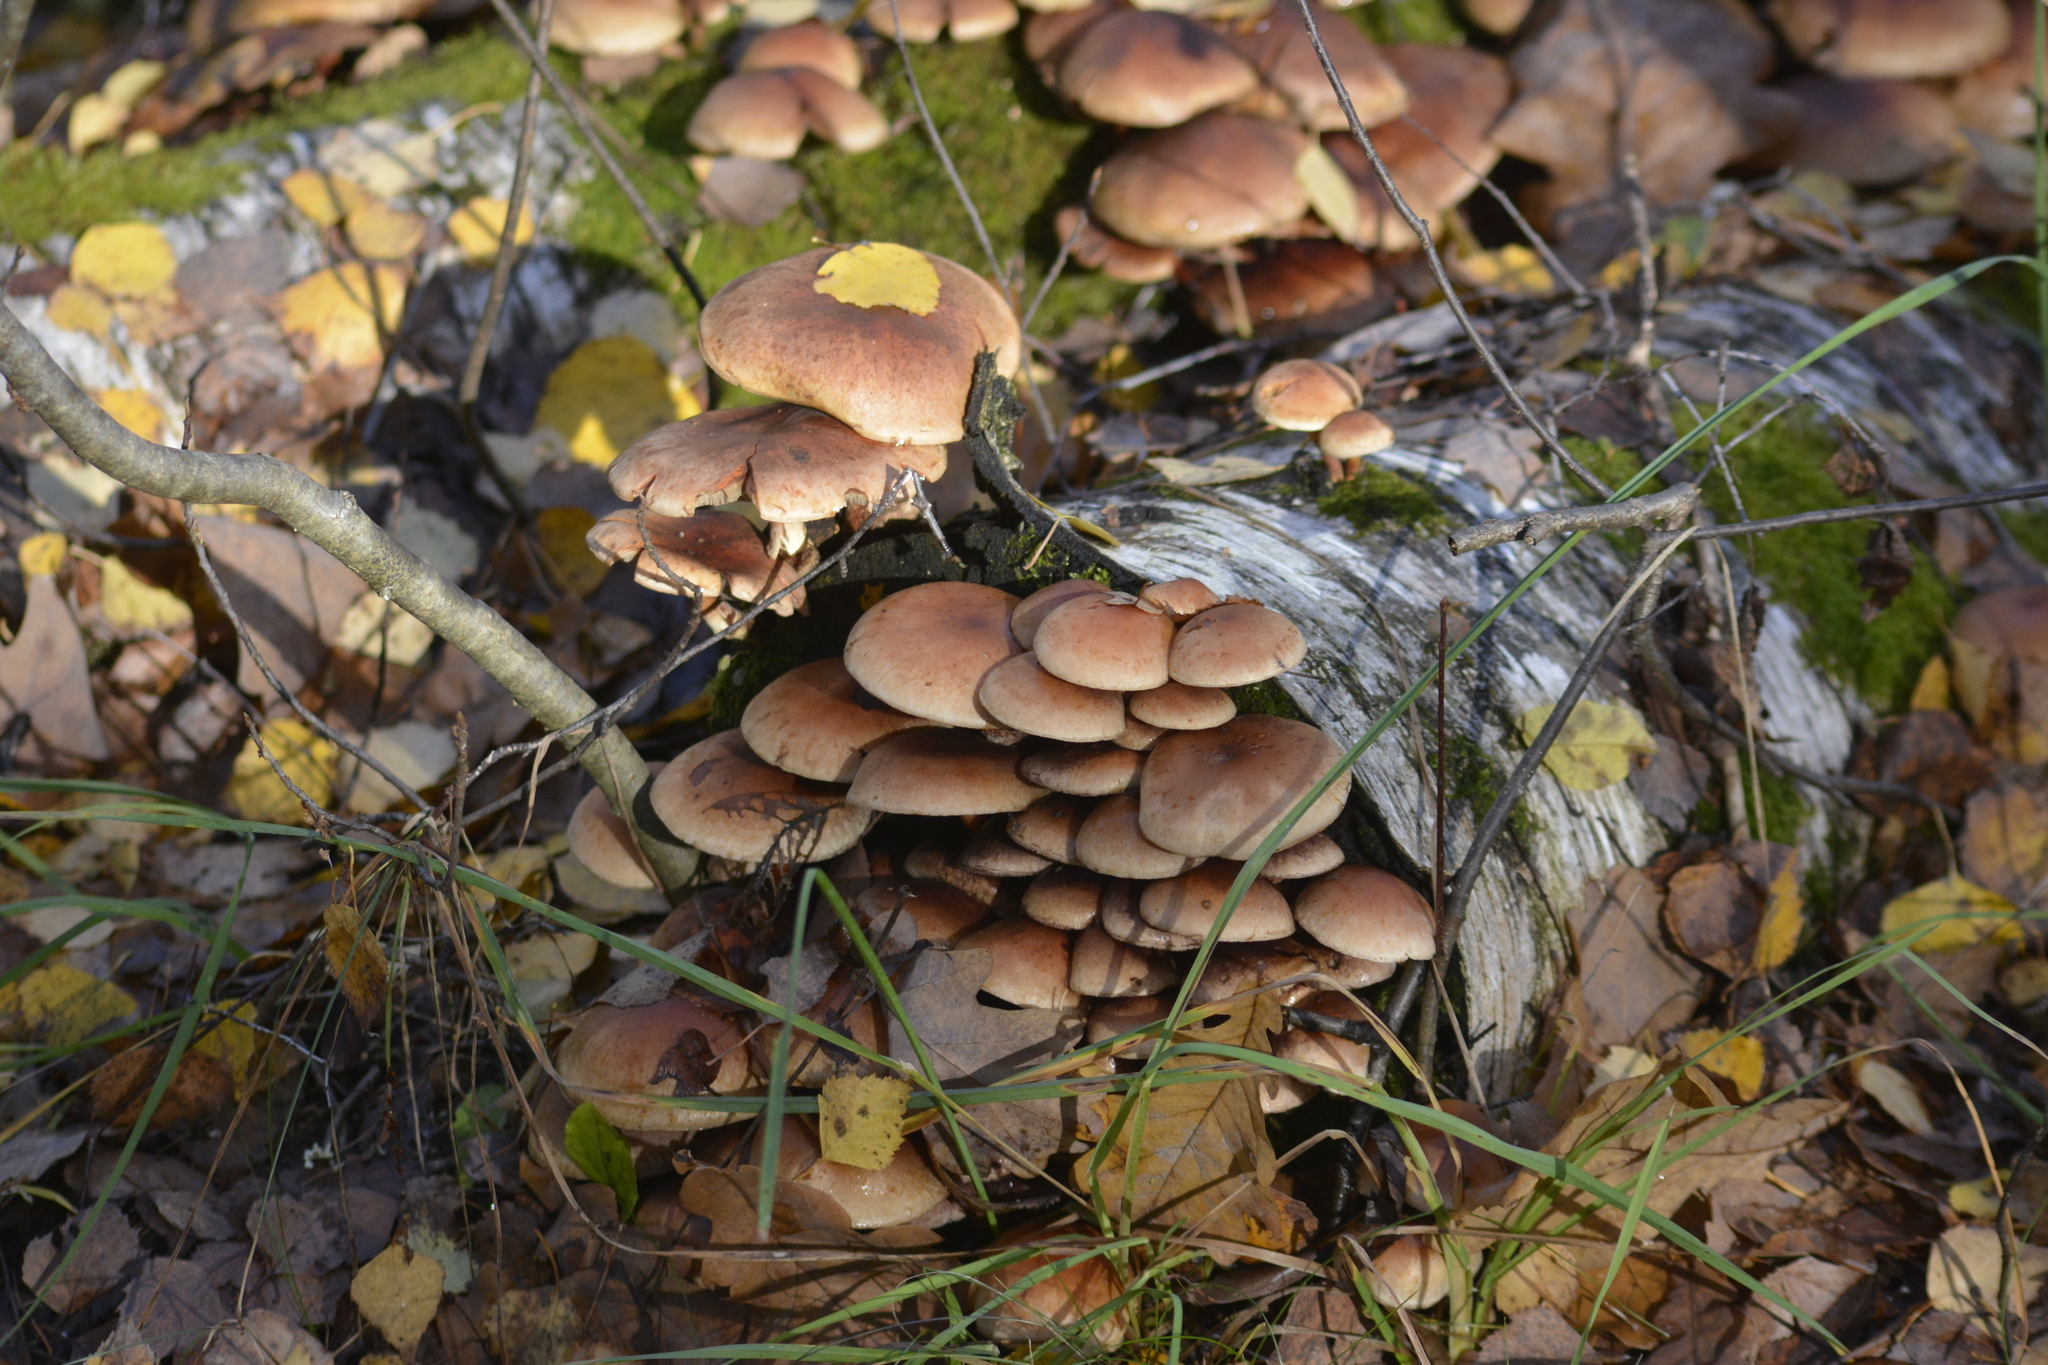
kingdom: Fungi
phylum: Basidiomycota
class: Agaricomycetes
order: Agaricales
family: Strophariaceae
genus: Hypholoma
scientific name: Hypholoma lateritium
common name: Brick caps
